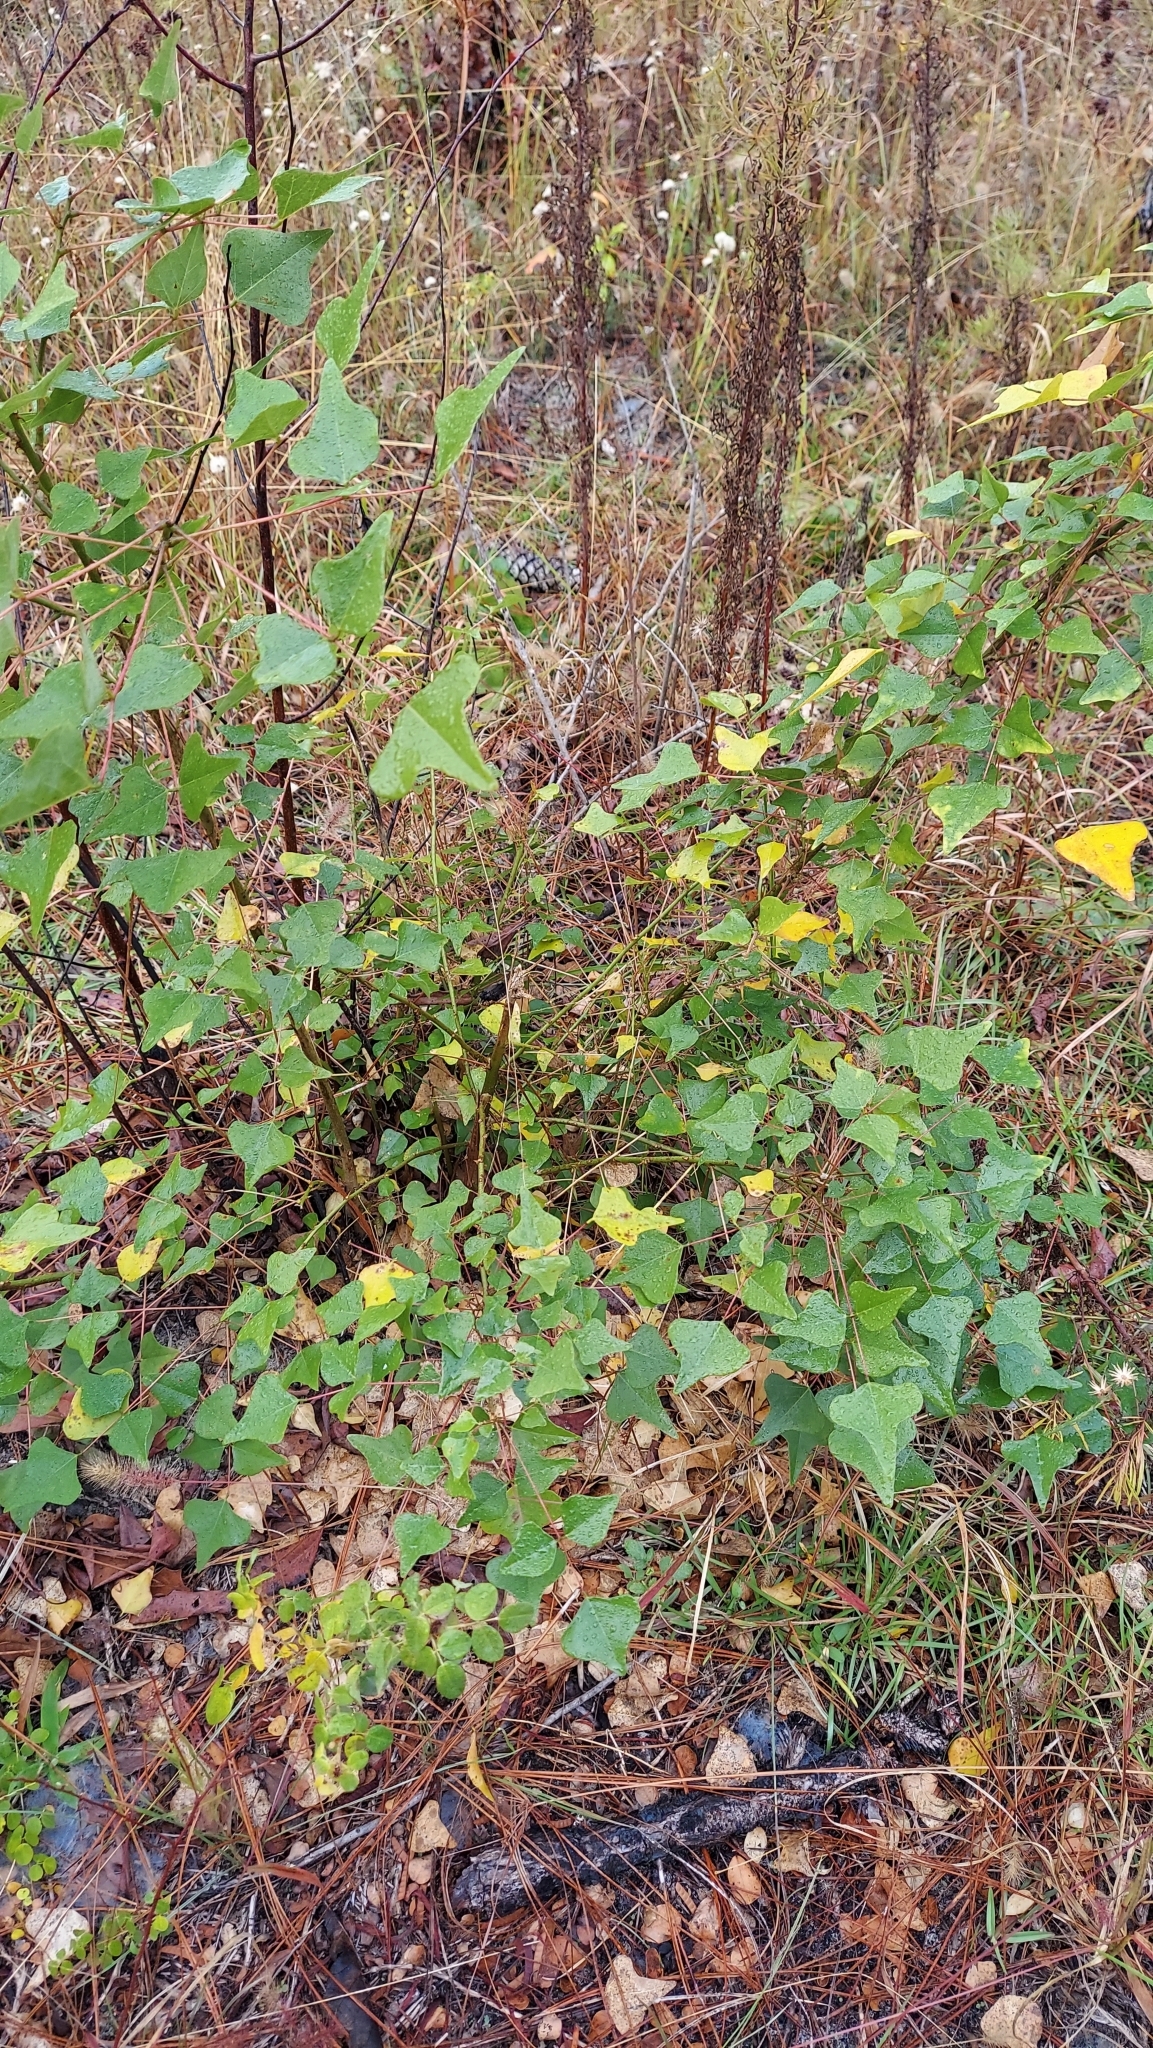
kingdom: Plantae
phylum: Tracheophyta
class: Magnoliopsida
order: Fabales
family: Fabaceae
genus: Erythrina
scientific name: Erythrina herbacea
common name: Coral-bean
